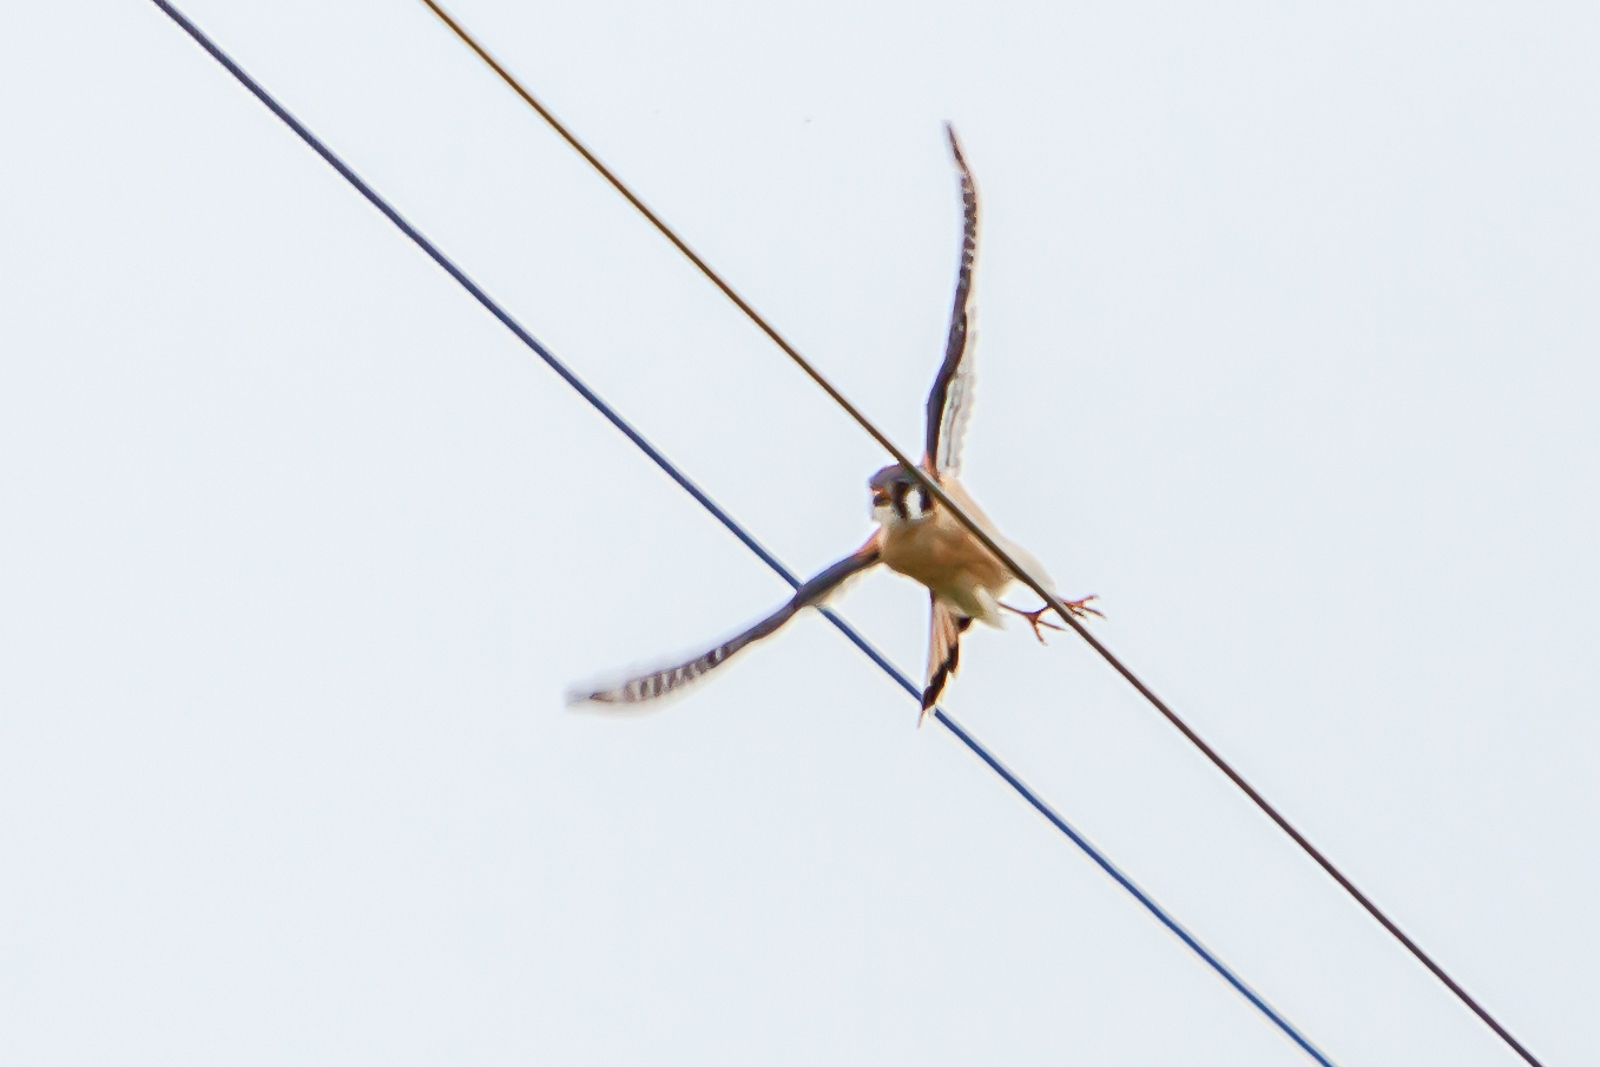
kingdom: Animalia
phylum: Chordata
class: Aves
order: Falconiformes
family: Falconidae
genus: Falco
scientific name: Falco sparverius
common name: American kestrel
